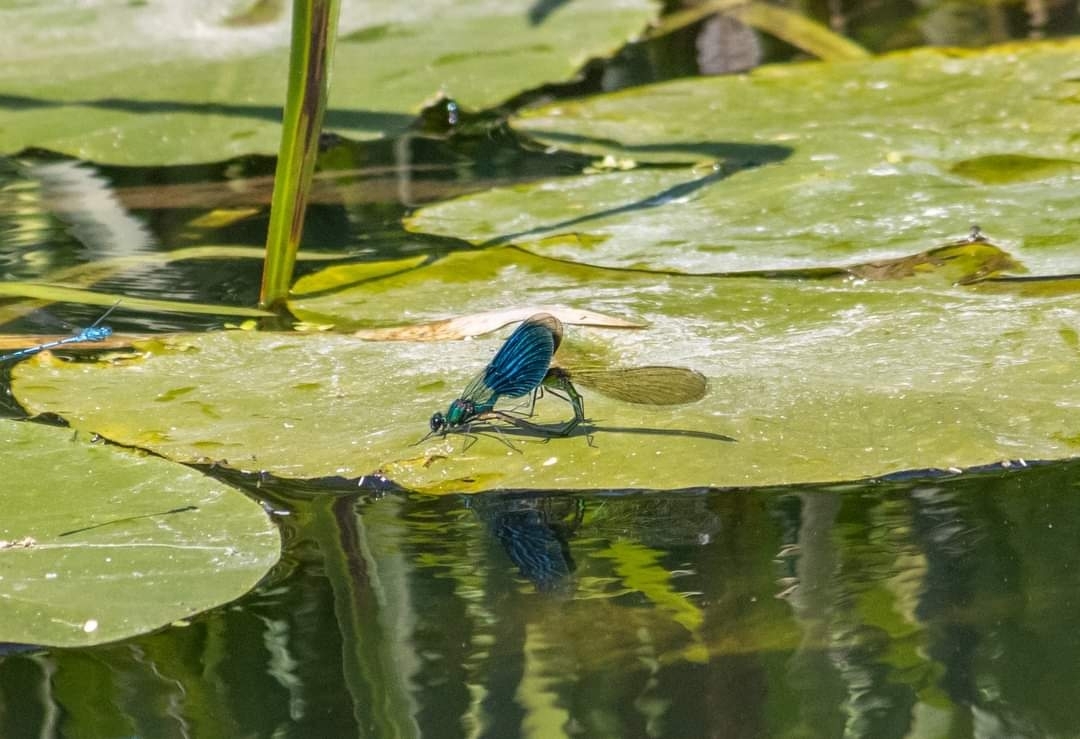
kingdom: Animalia
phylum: Arthropoda
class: Insecta
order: Odonata
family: Calopterygidae
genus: Calopteryx
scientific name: Calopteryx splendens
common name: Banded demoiselle
